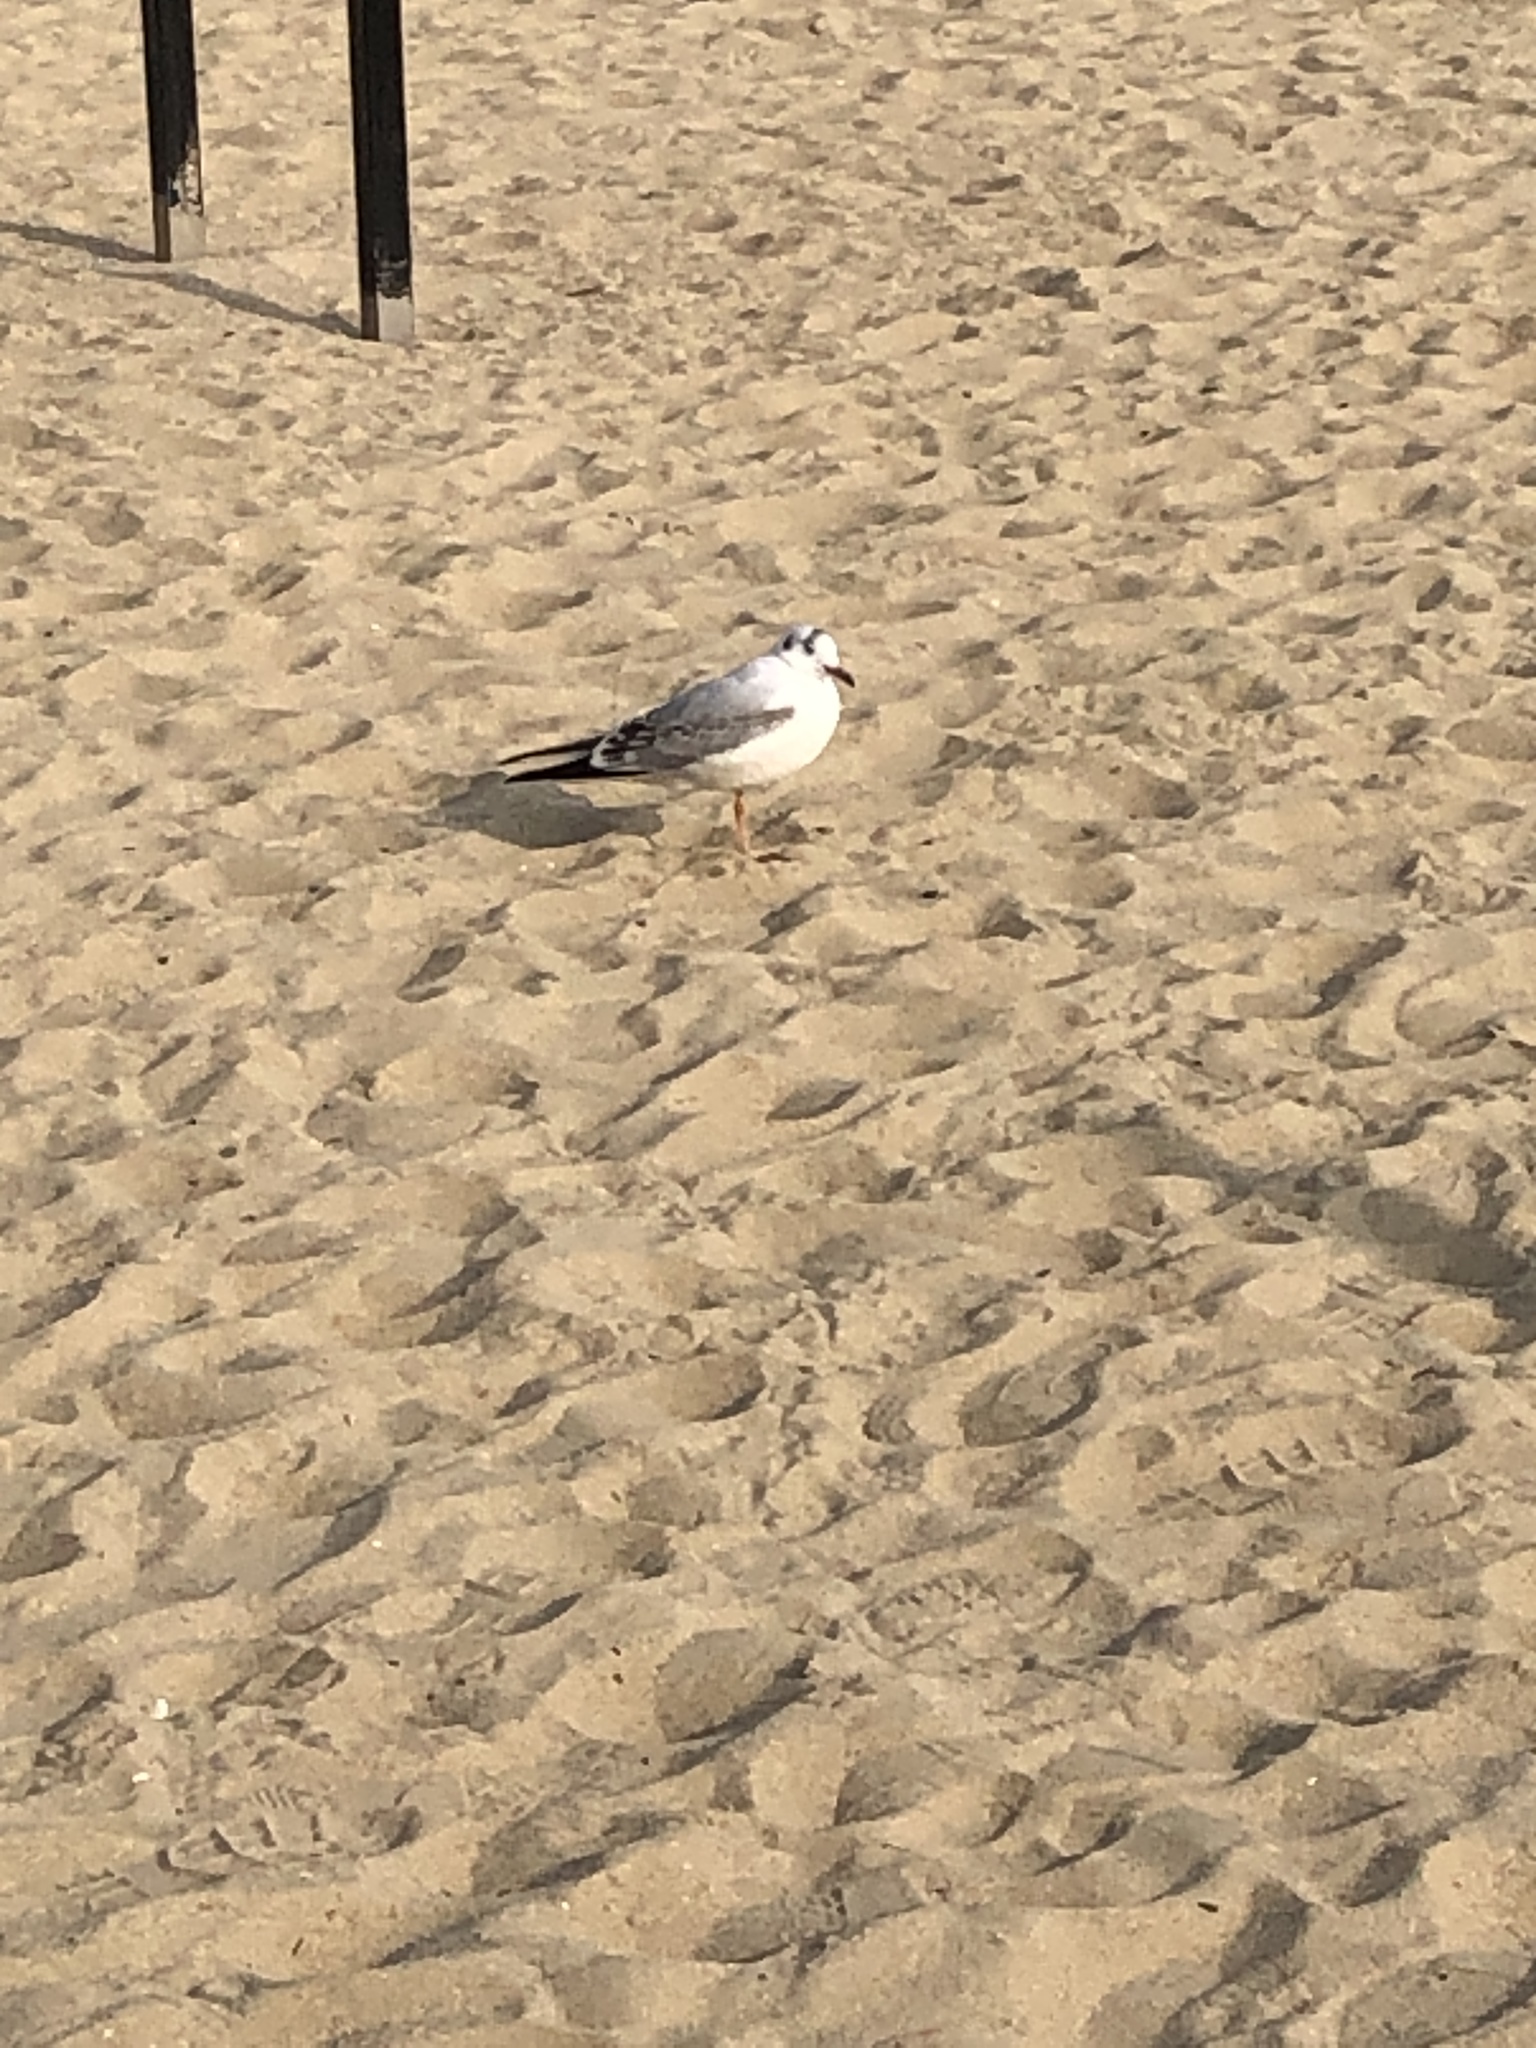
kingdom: Animalia
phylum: Chordata
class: Aves
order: Charadriiformes
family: Laridae
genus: Chroicocephalus
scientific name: Chroicocephalus ridibundus
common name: Black-headed gull
